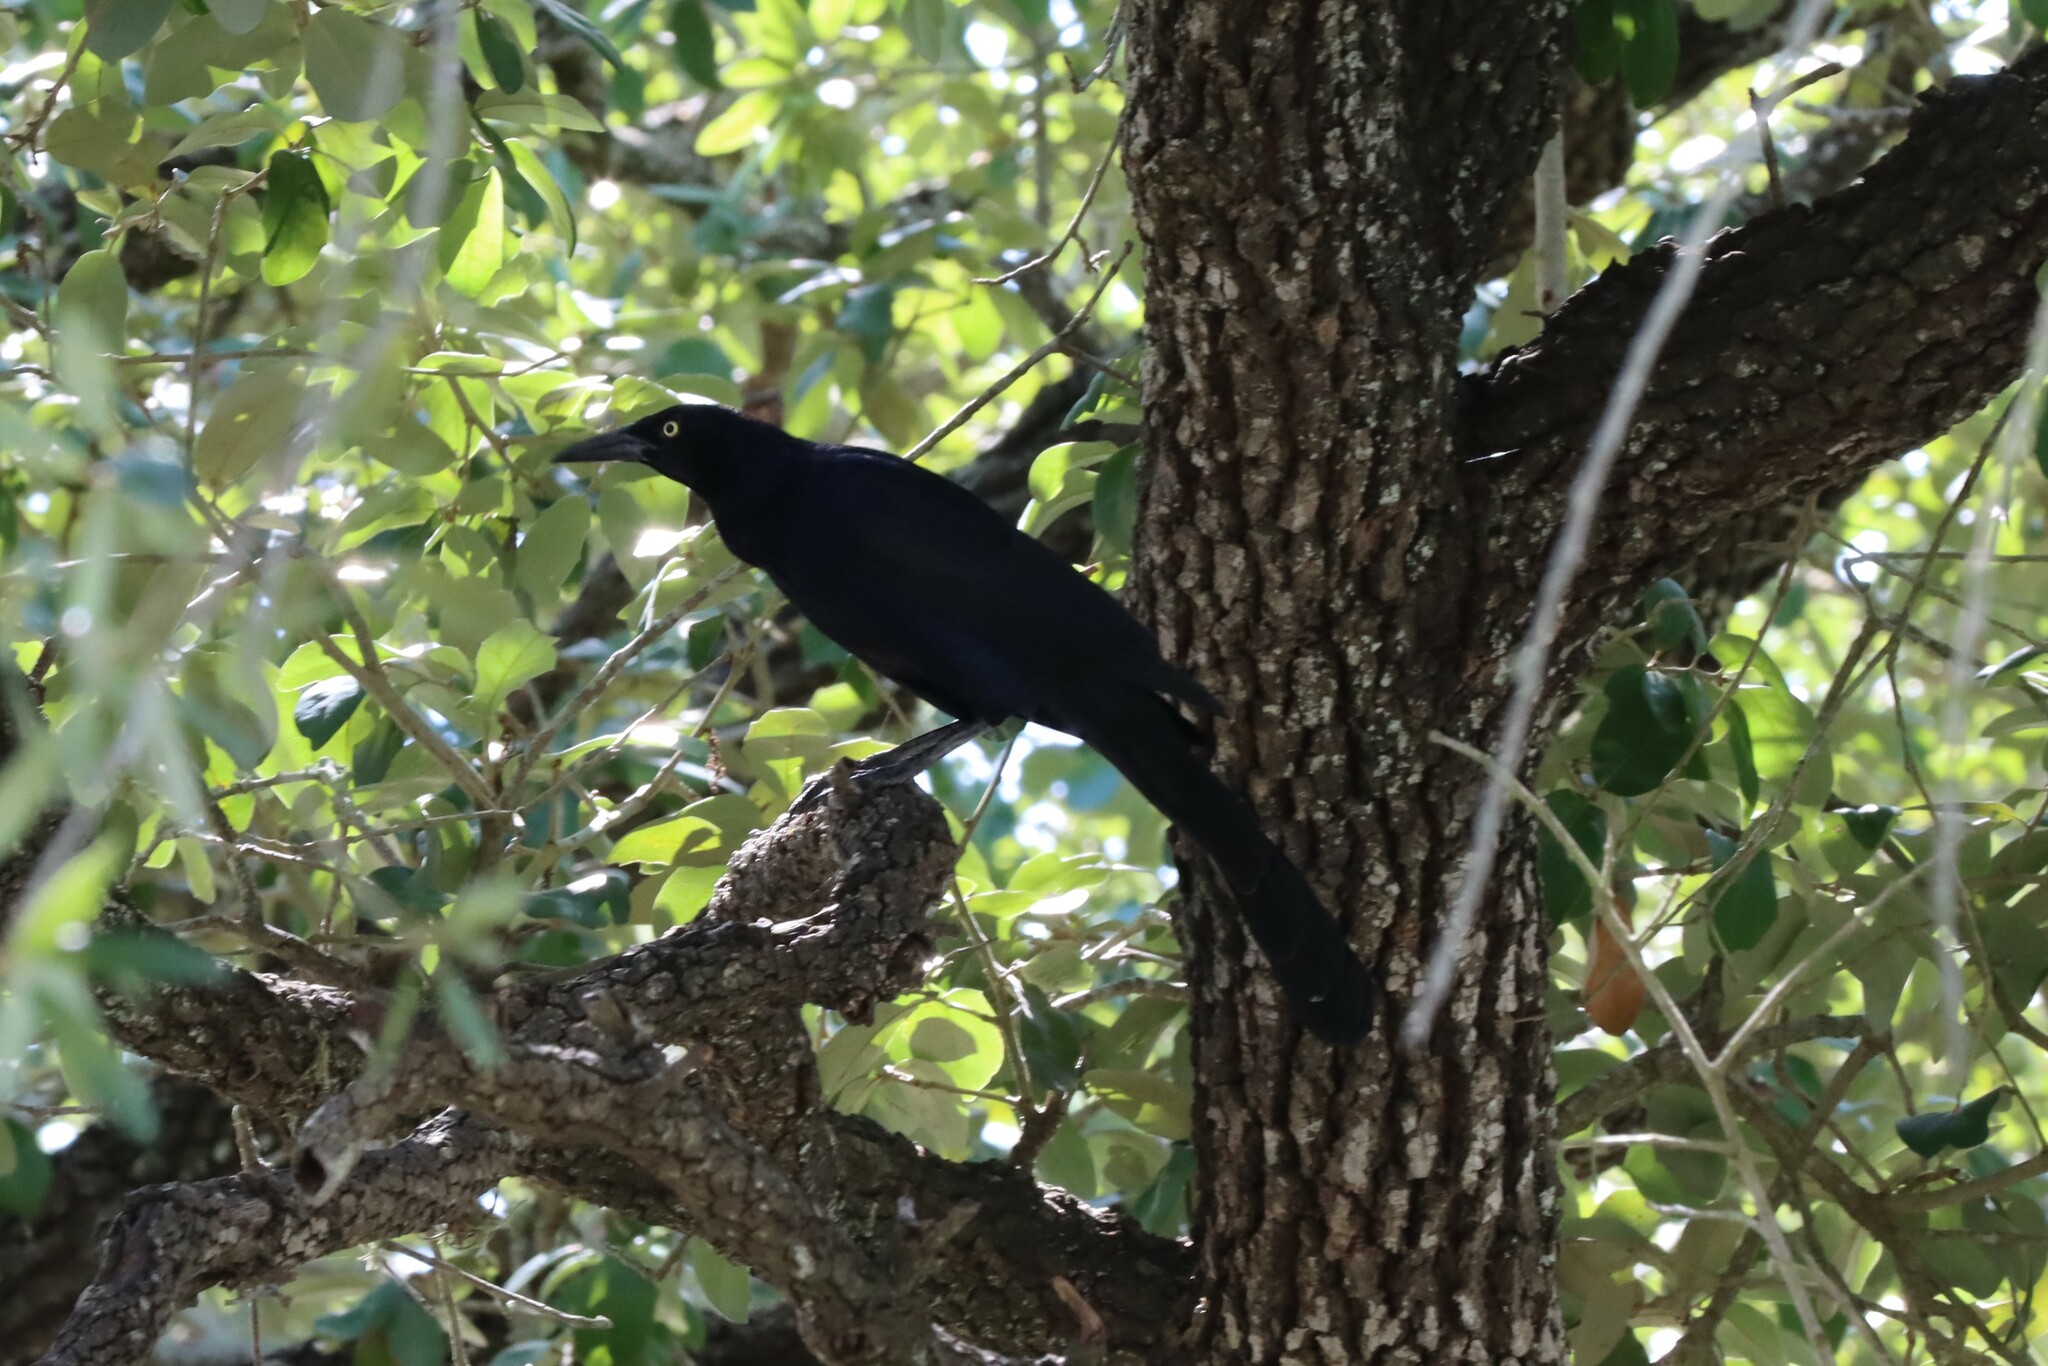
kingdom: Animalia
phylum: Chordata
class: Aves
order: Passeriformes
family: Icteridae
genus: Quiscalus
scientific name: Quiscalus mexicanus
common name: Great-tailed grackle
